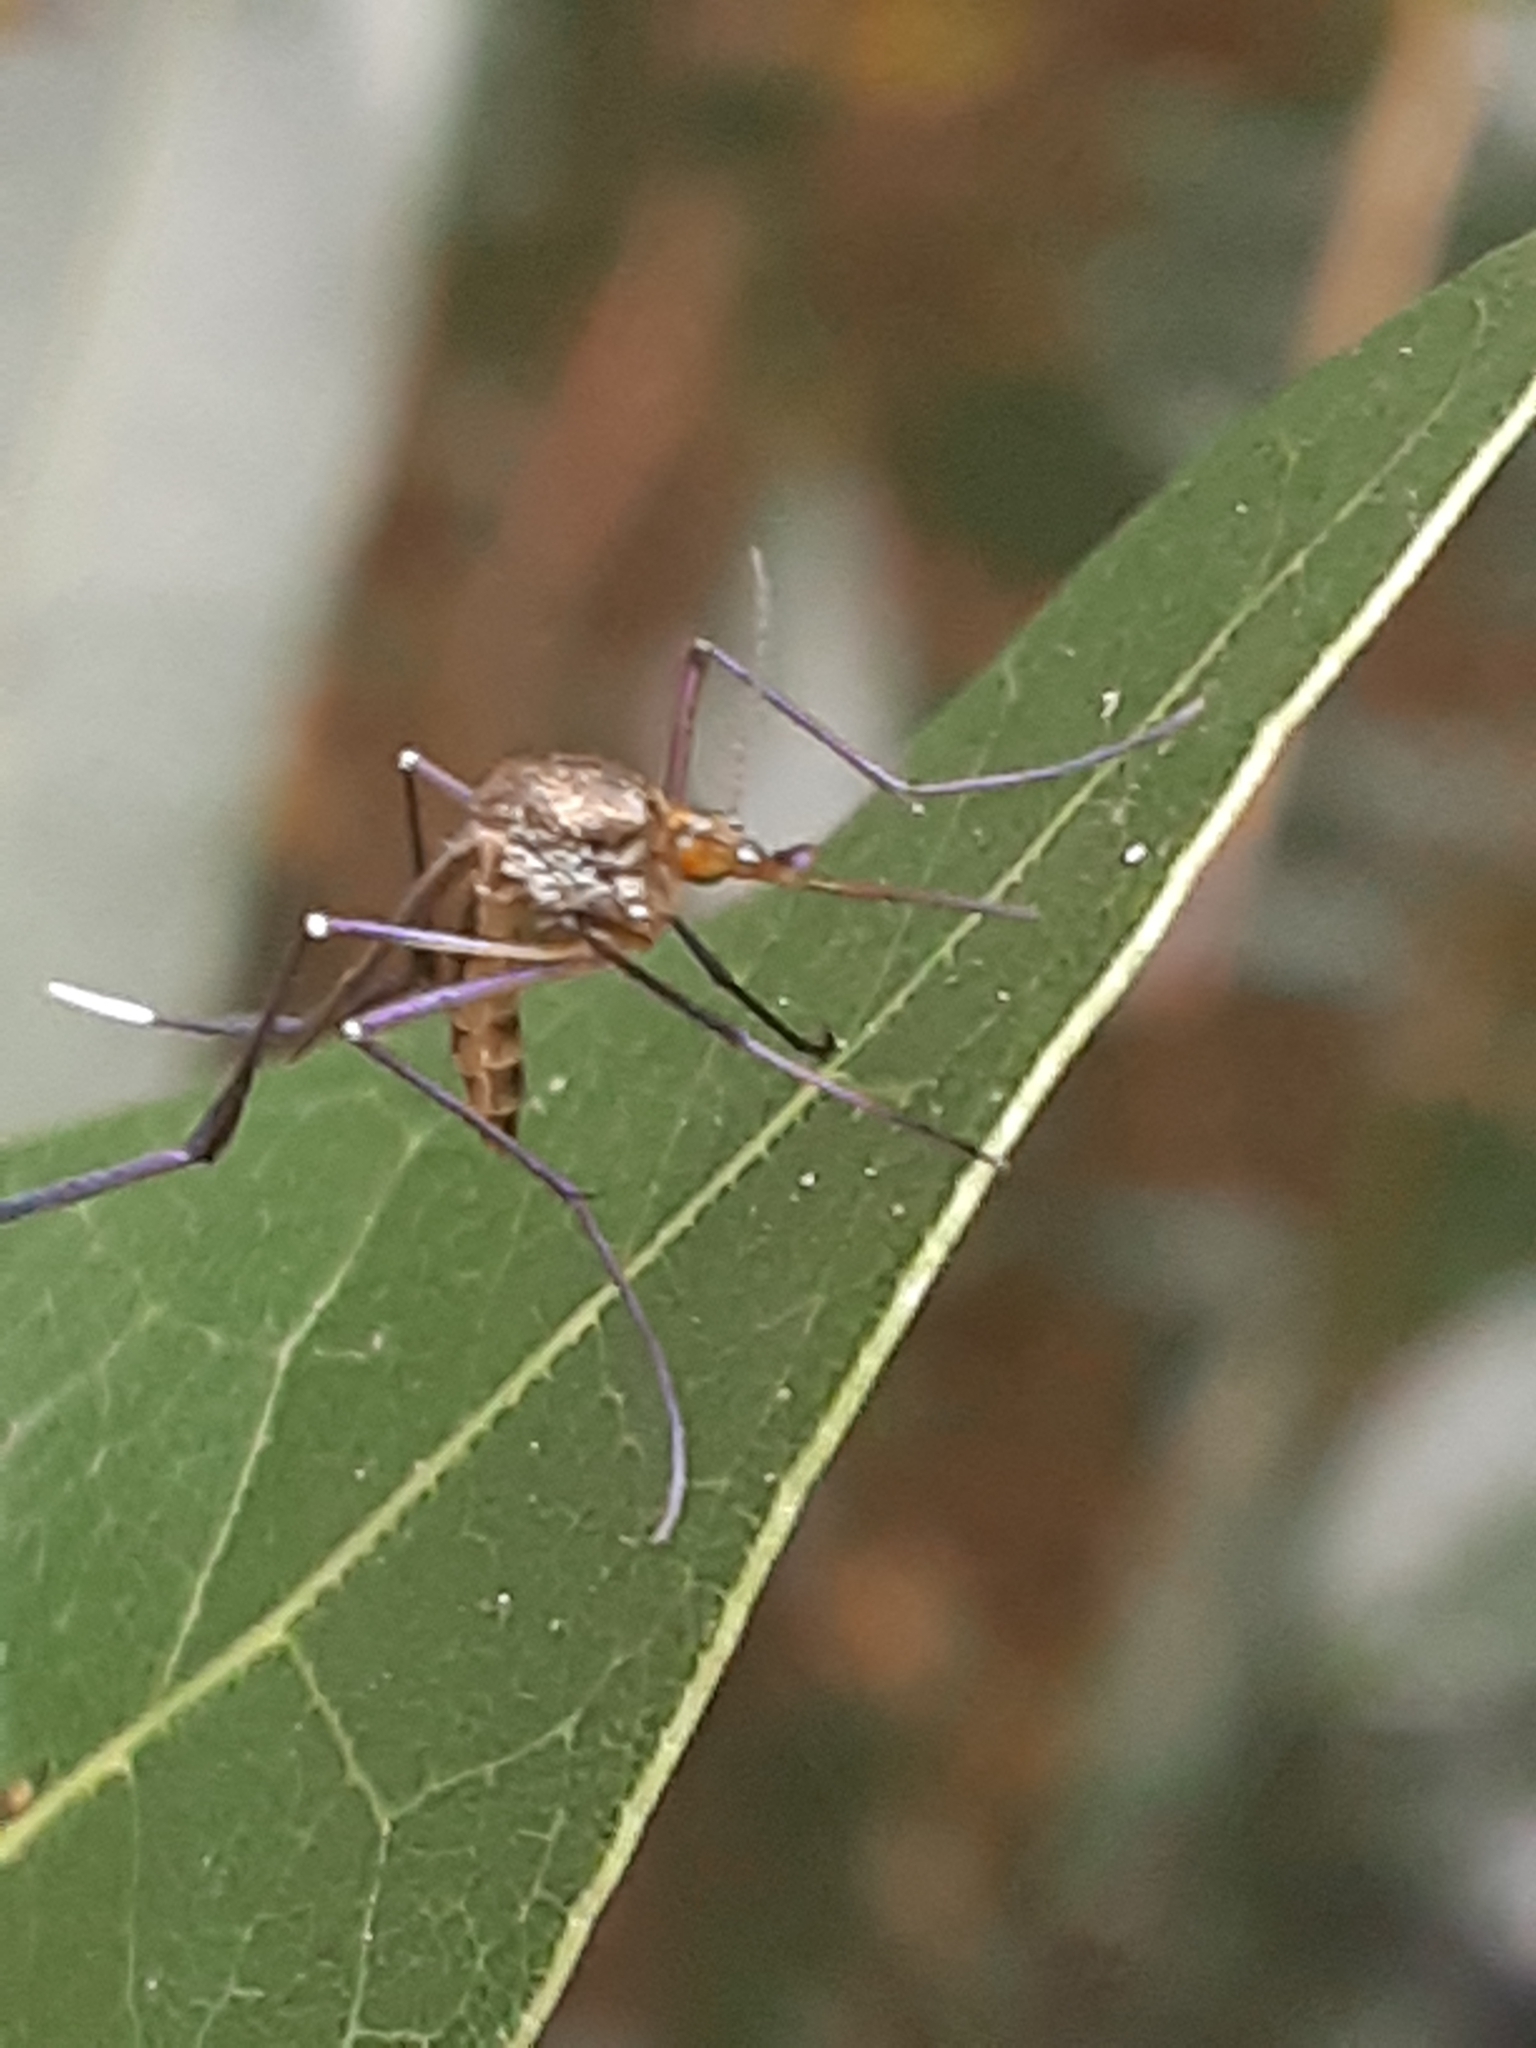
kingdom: Animalia
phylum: Arthropoda
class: Insecta
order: Diptera
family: Culicidae
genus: Psorophora
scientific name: Psorophora ferox
